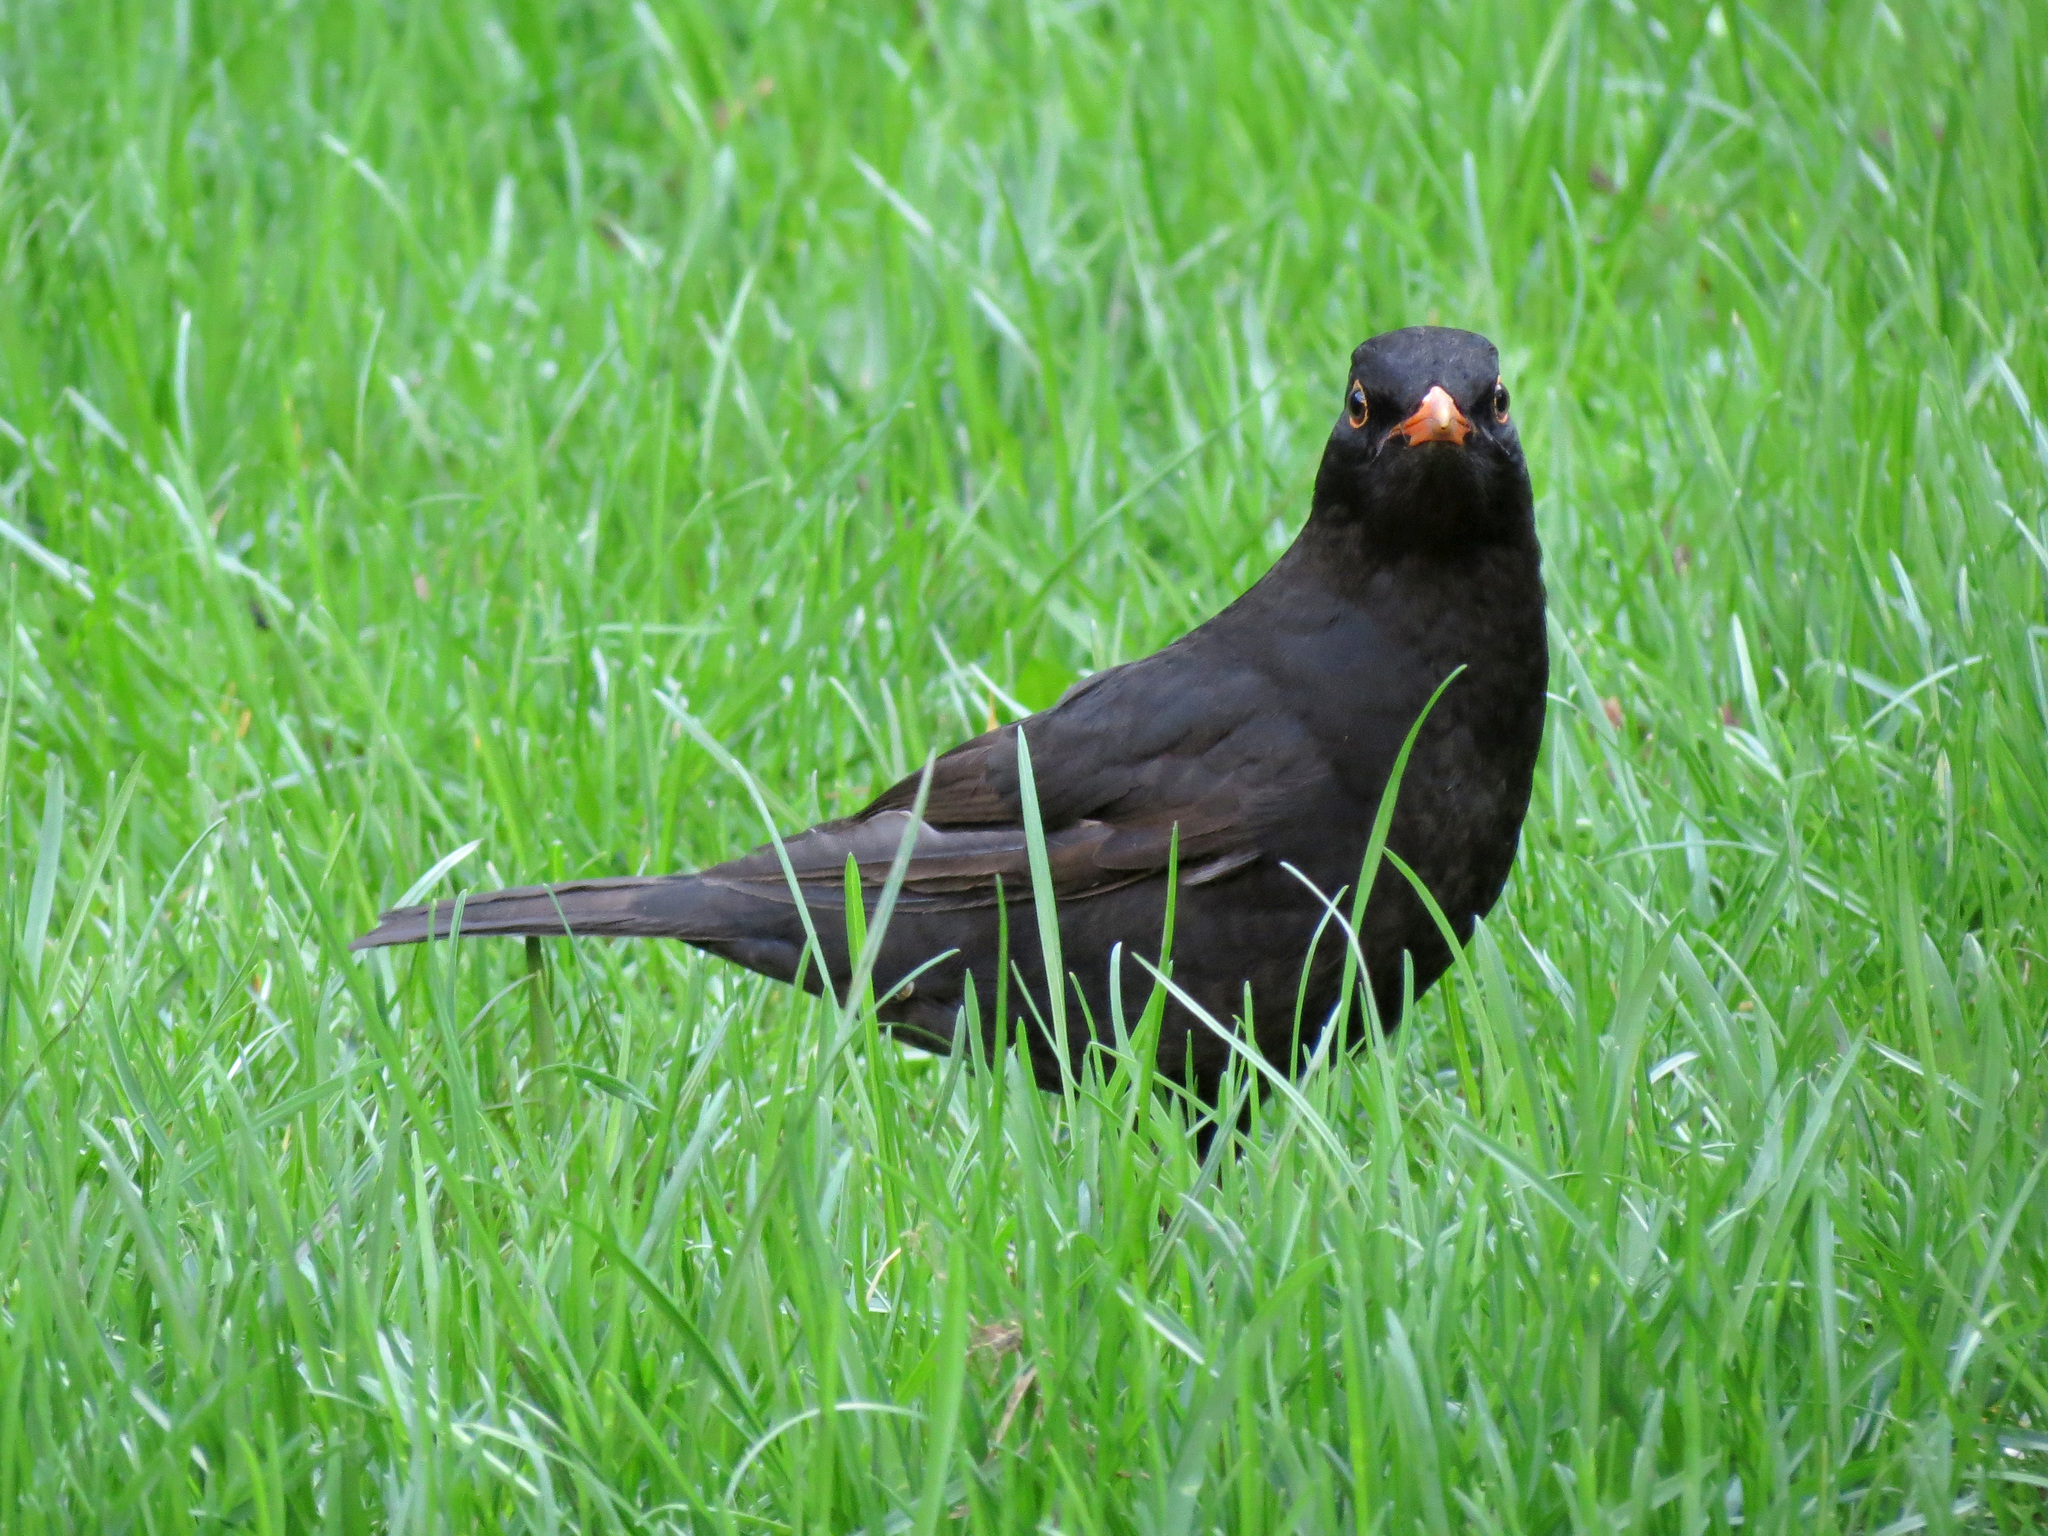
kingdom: Animalia
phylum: Chordata
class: Aves
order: Passeriformes
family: Turdidae
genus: Turdus
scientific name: Turdus merula
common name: Common blackbird
